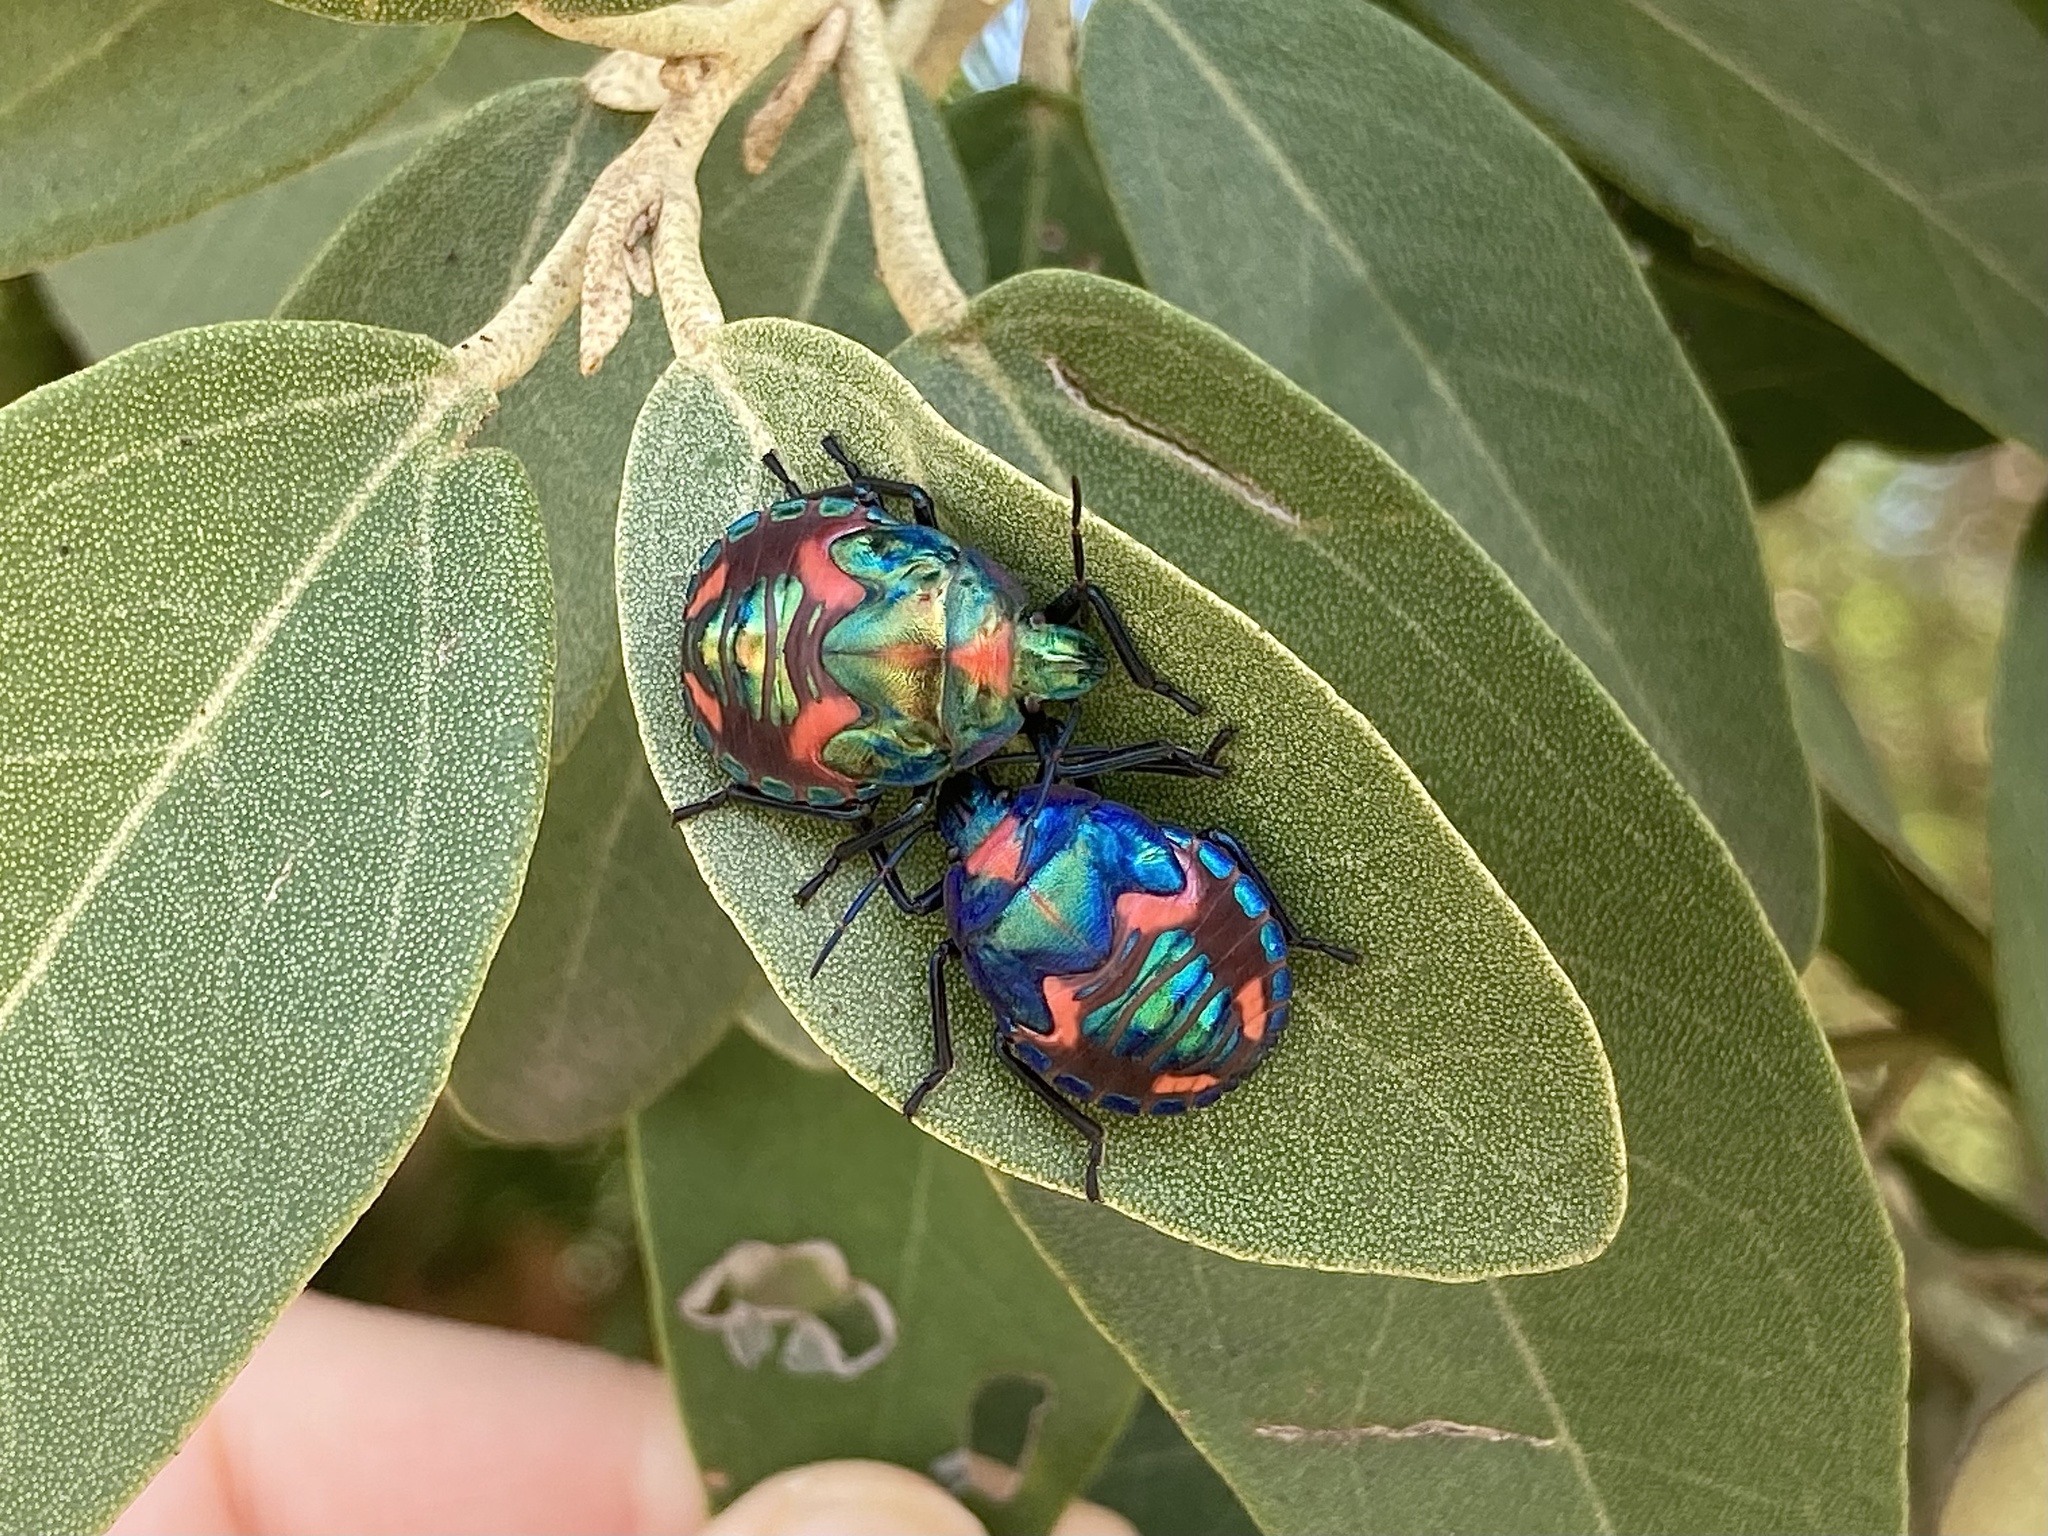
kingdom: Animalia
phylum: Arthropoda
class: Insecta
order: Hemiptera
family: Scutelleridae
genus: Tectocoris
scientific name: Tectocoris diophthalmus
